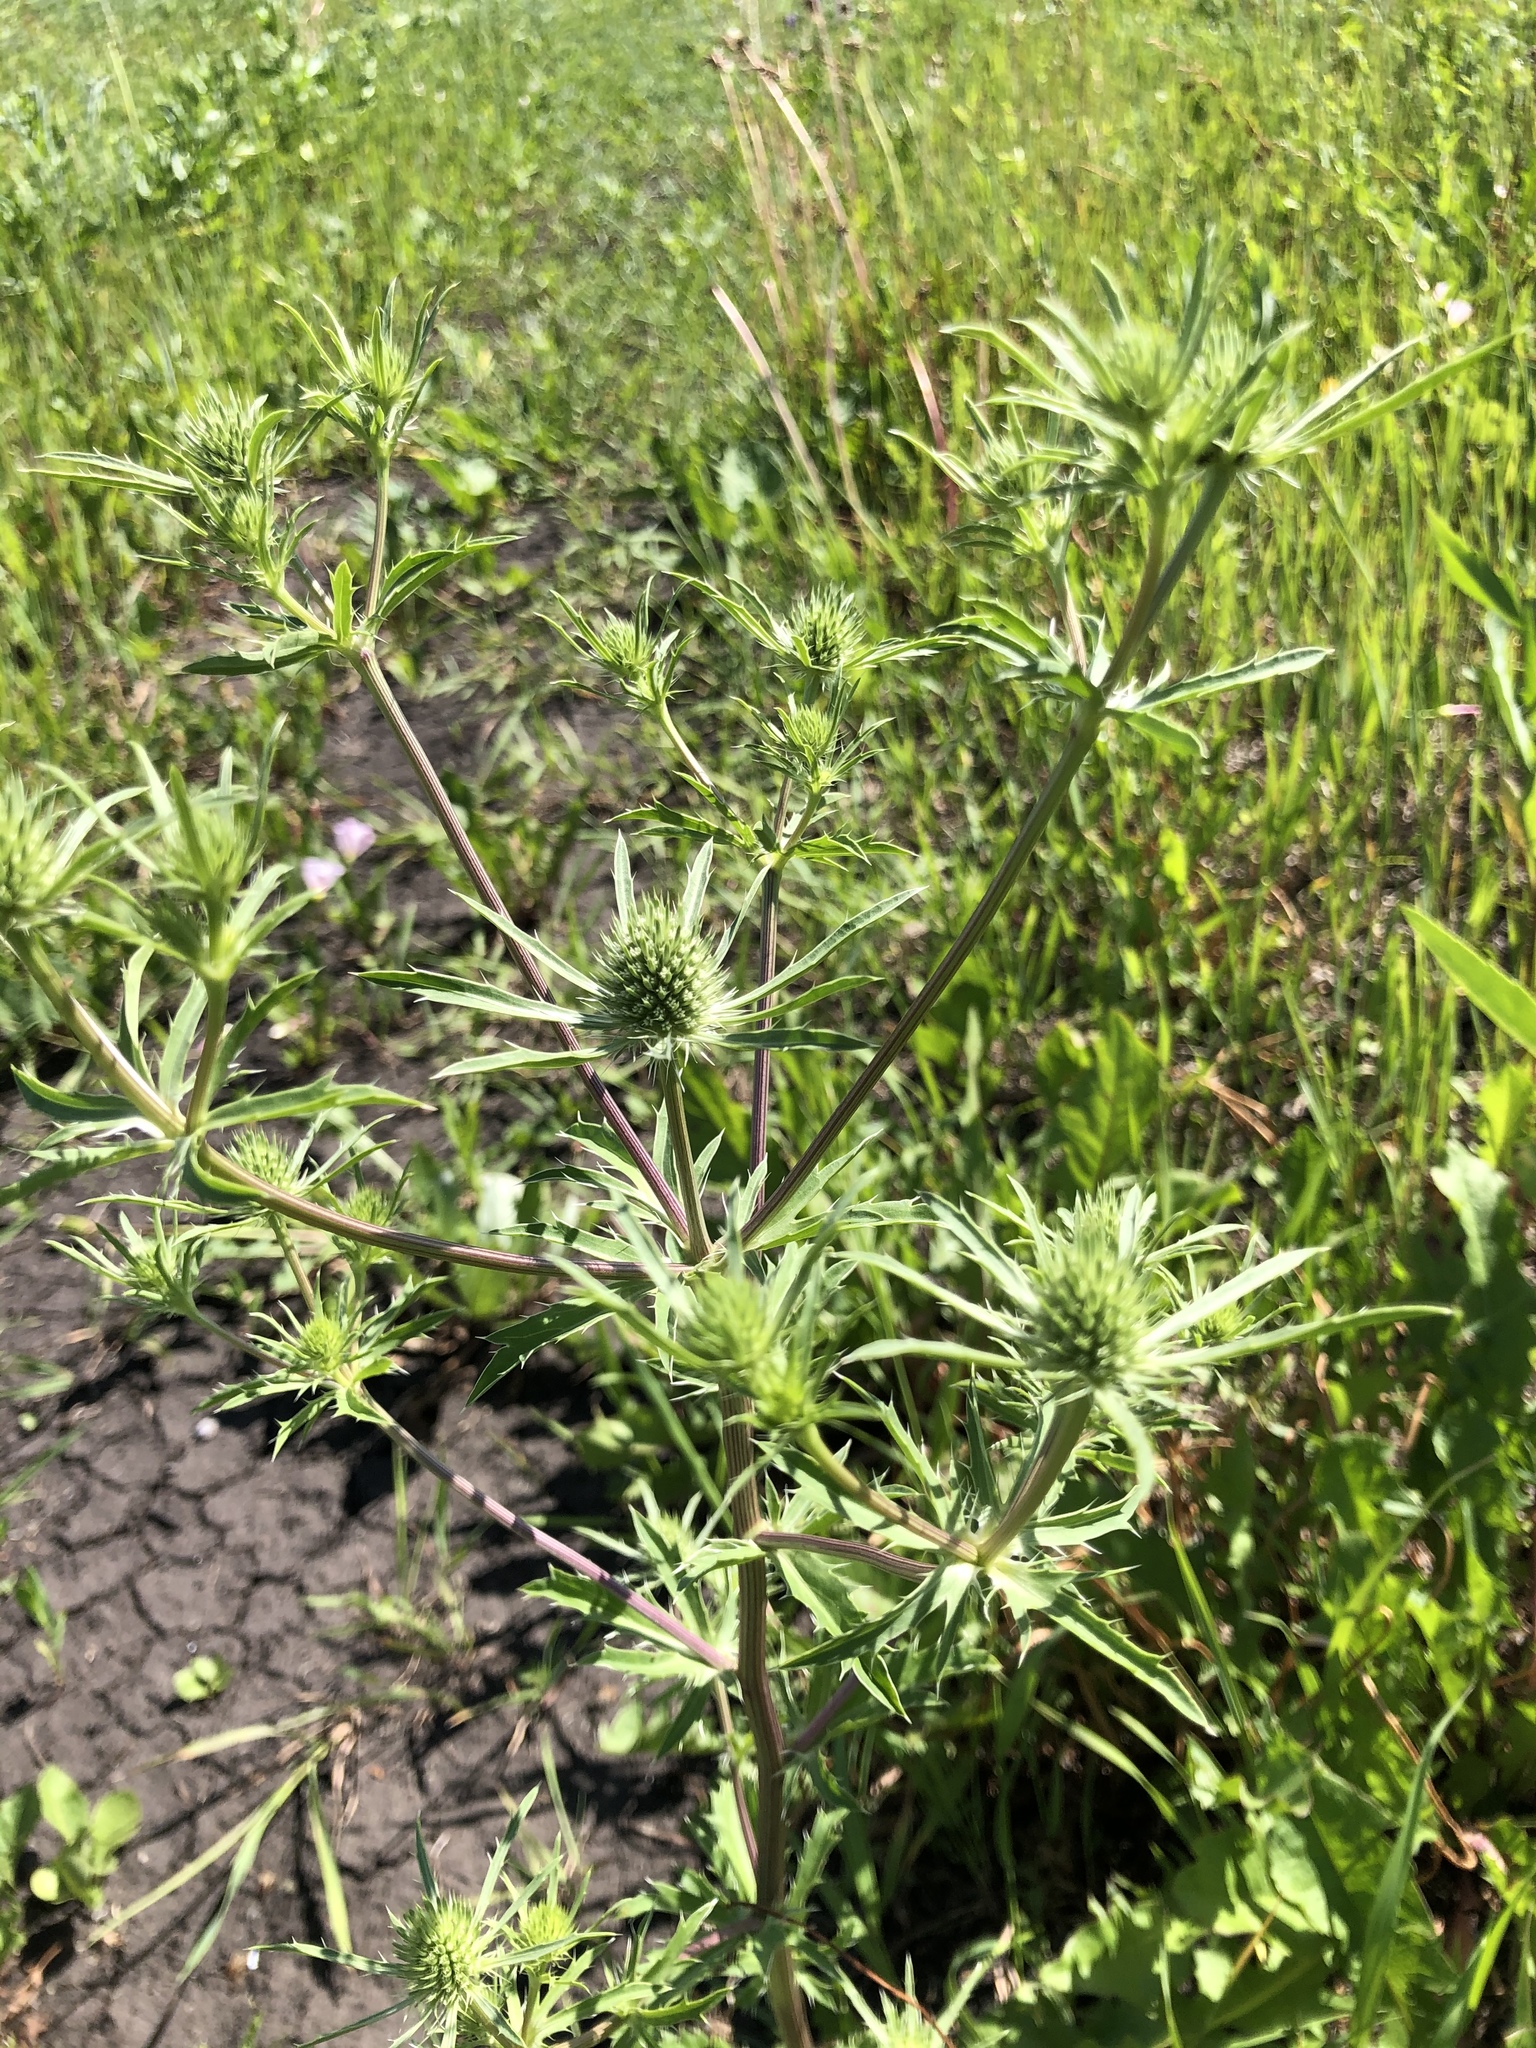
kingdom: Plantae
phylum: Tracheophyta
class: Magnoliopsida
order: Apiales
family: Apiaceae
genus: Eryngium
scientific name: Eryngium planum
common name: Blue eryngo
